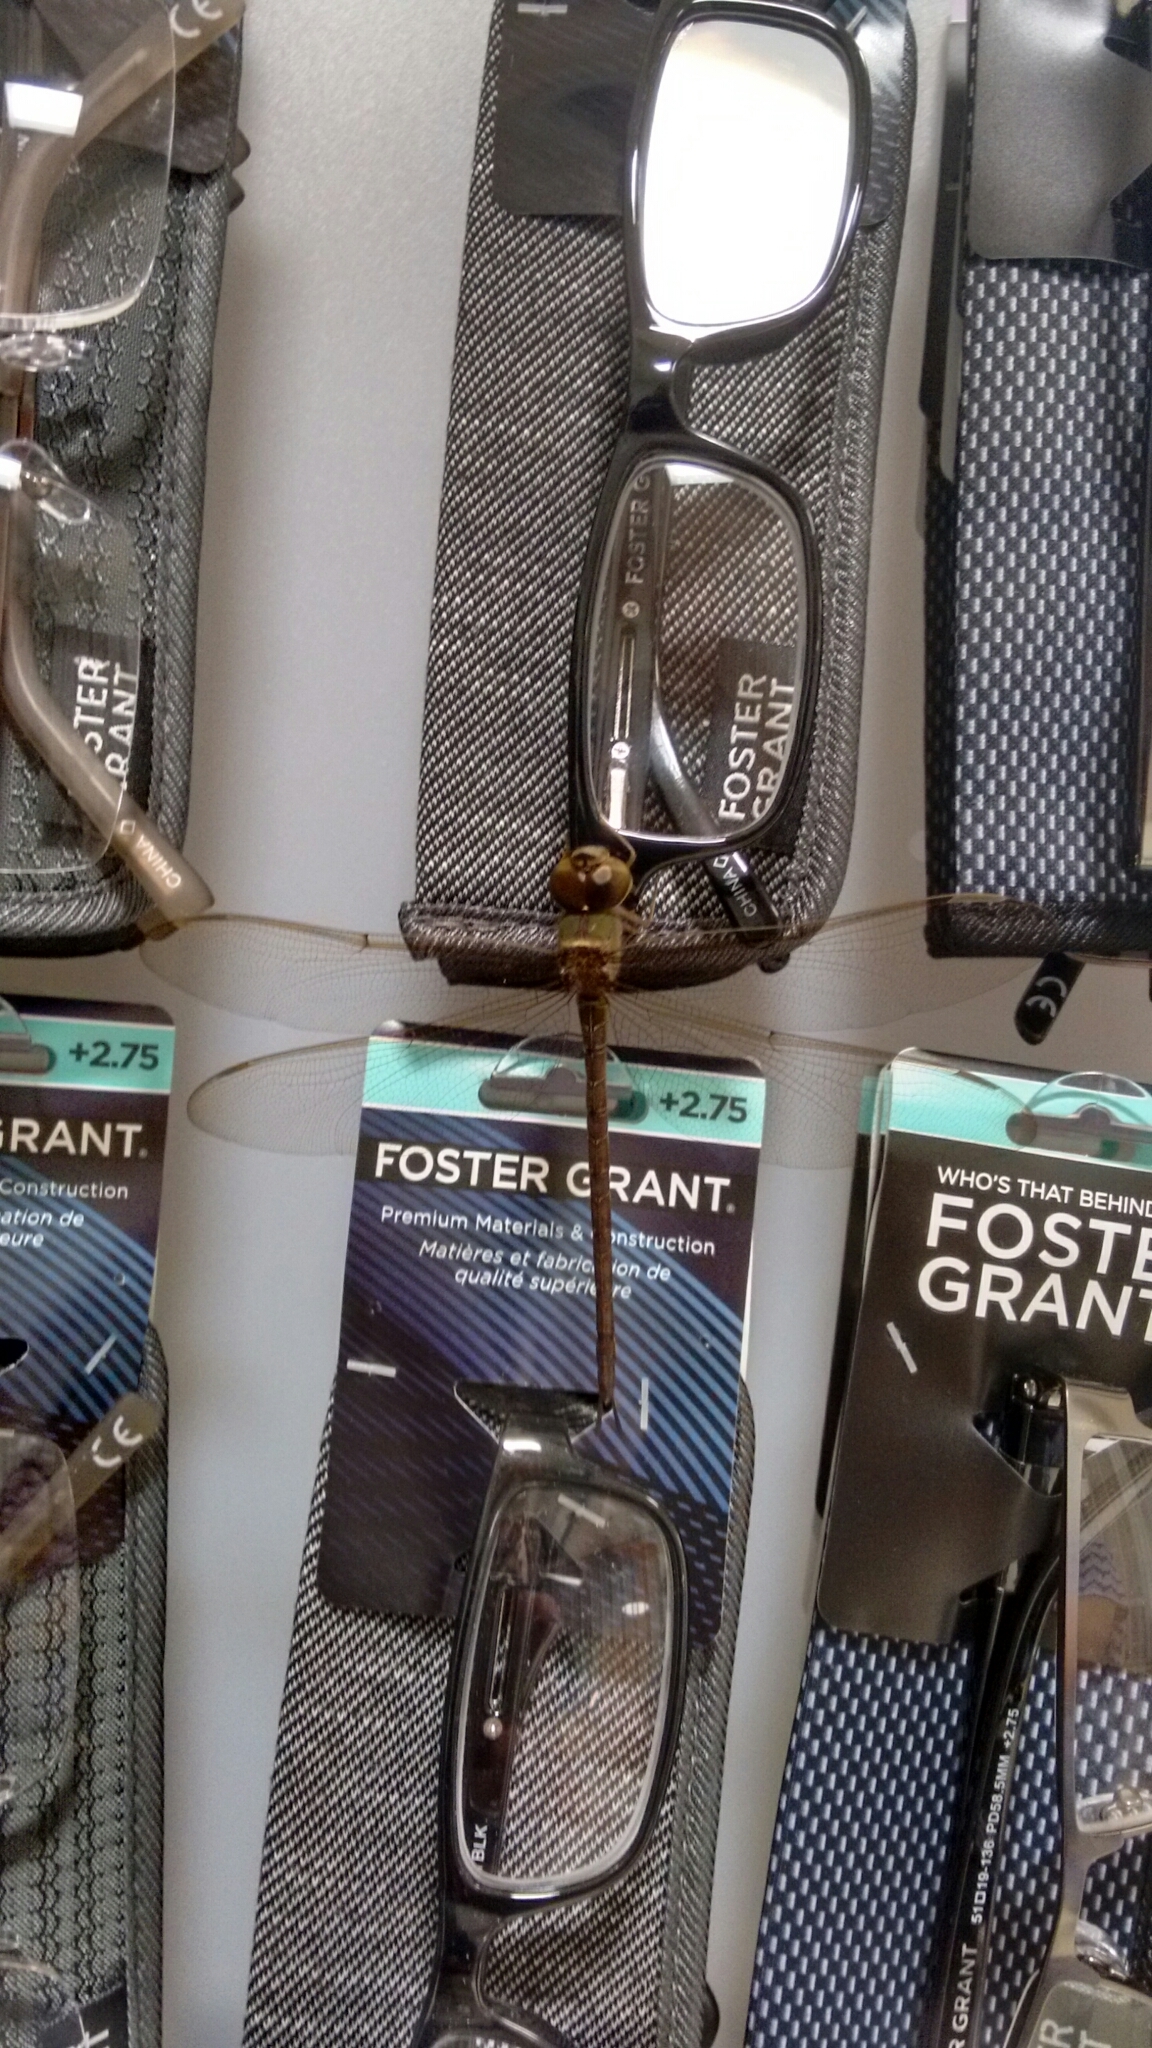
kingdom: Animalia
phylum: Arthropoda
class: Insecta
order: Odonata
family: Aeshnidae
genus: Gynacantha
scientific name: Gynacantha nervosa
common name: Twilight darner
